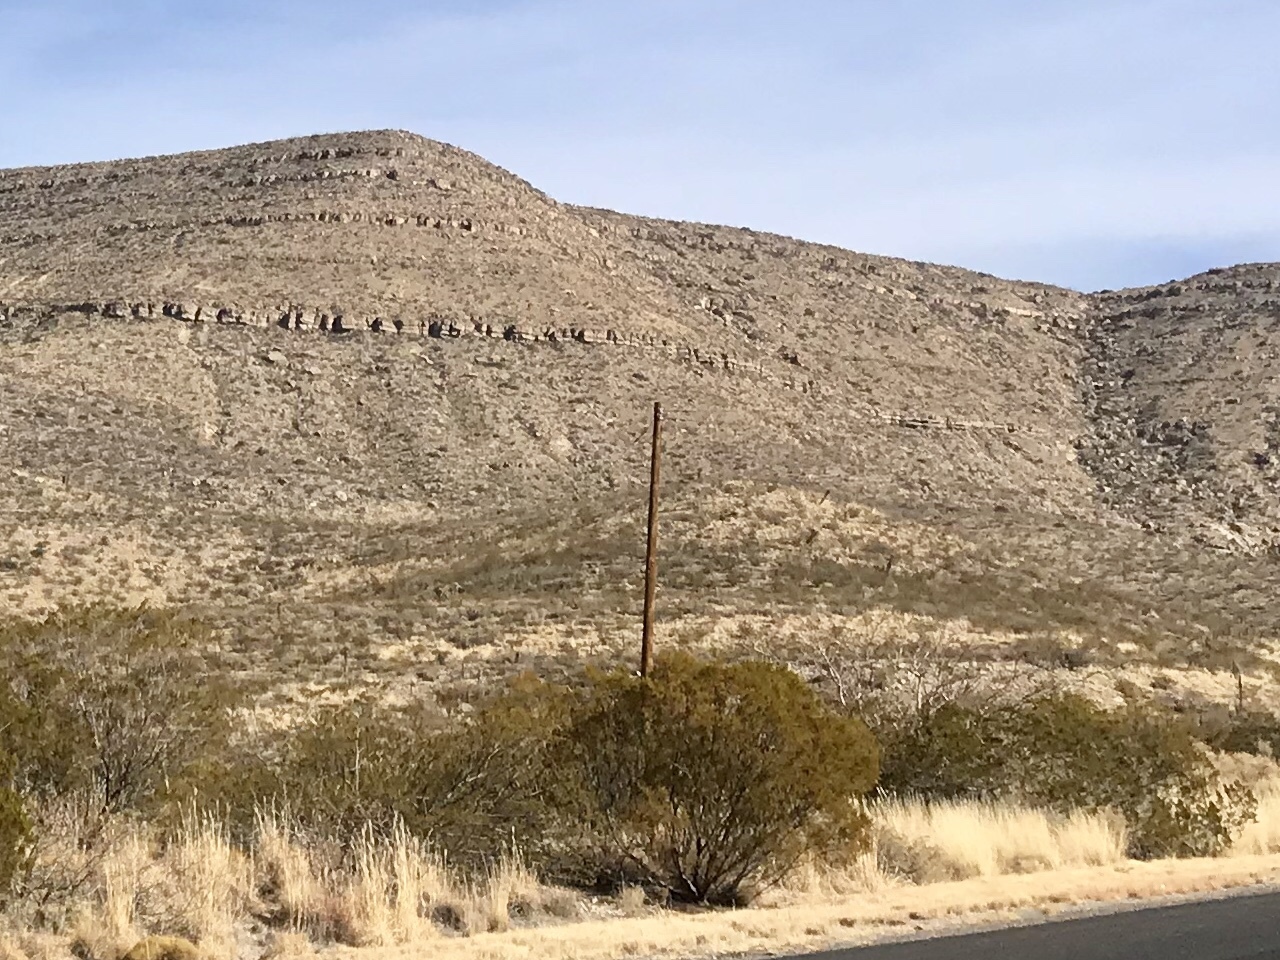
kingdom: Plantae
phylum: Tracheophyta
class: Magnoliopsida
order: Zygophyllales
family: Zygophyllaceae
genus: Larrea
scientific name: Larrea tridentata
